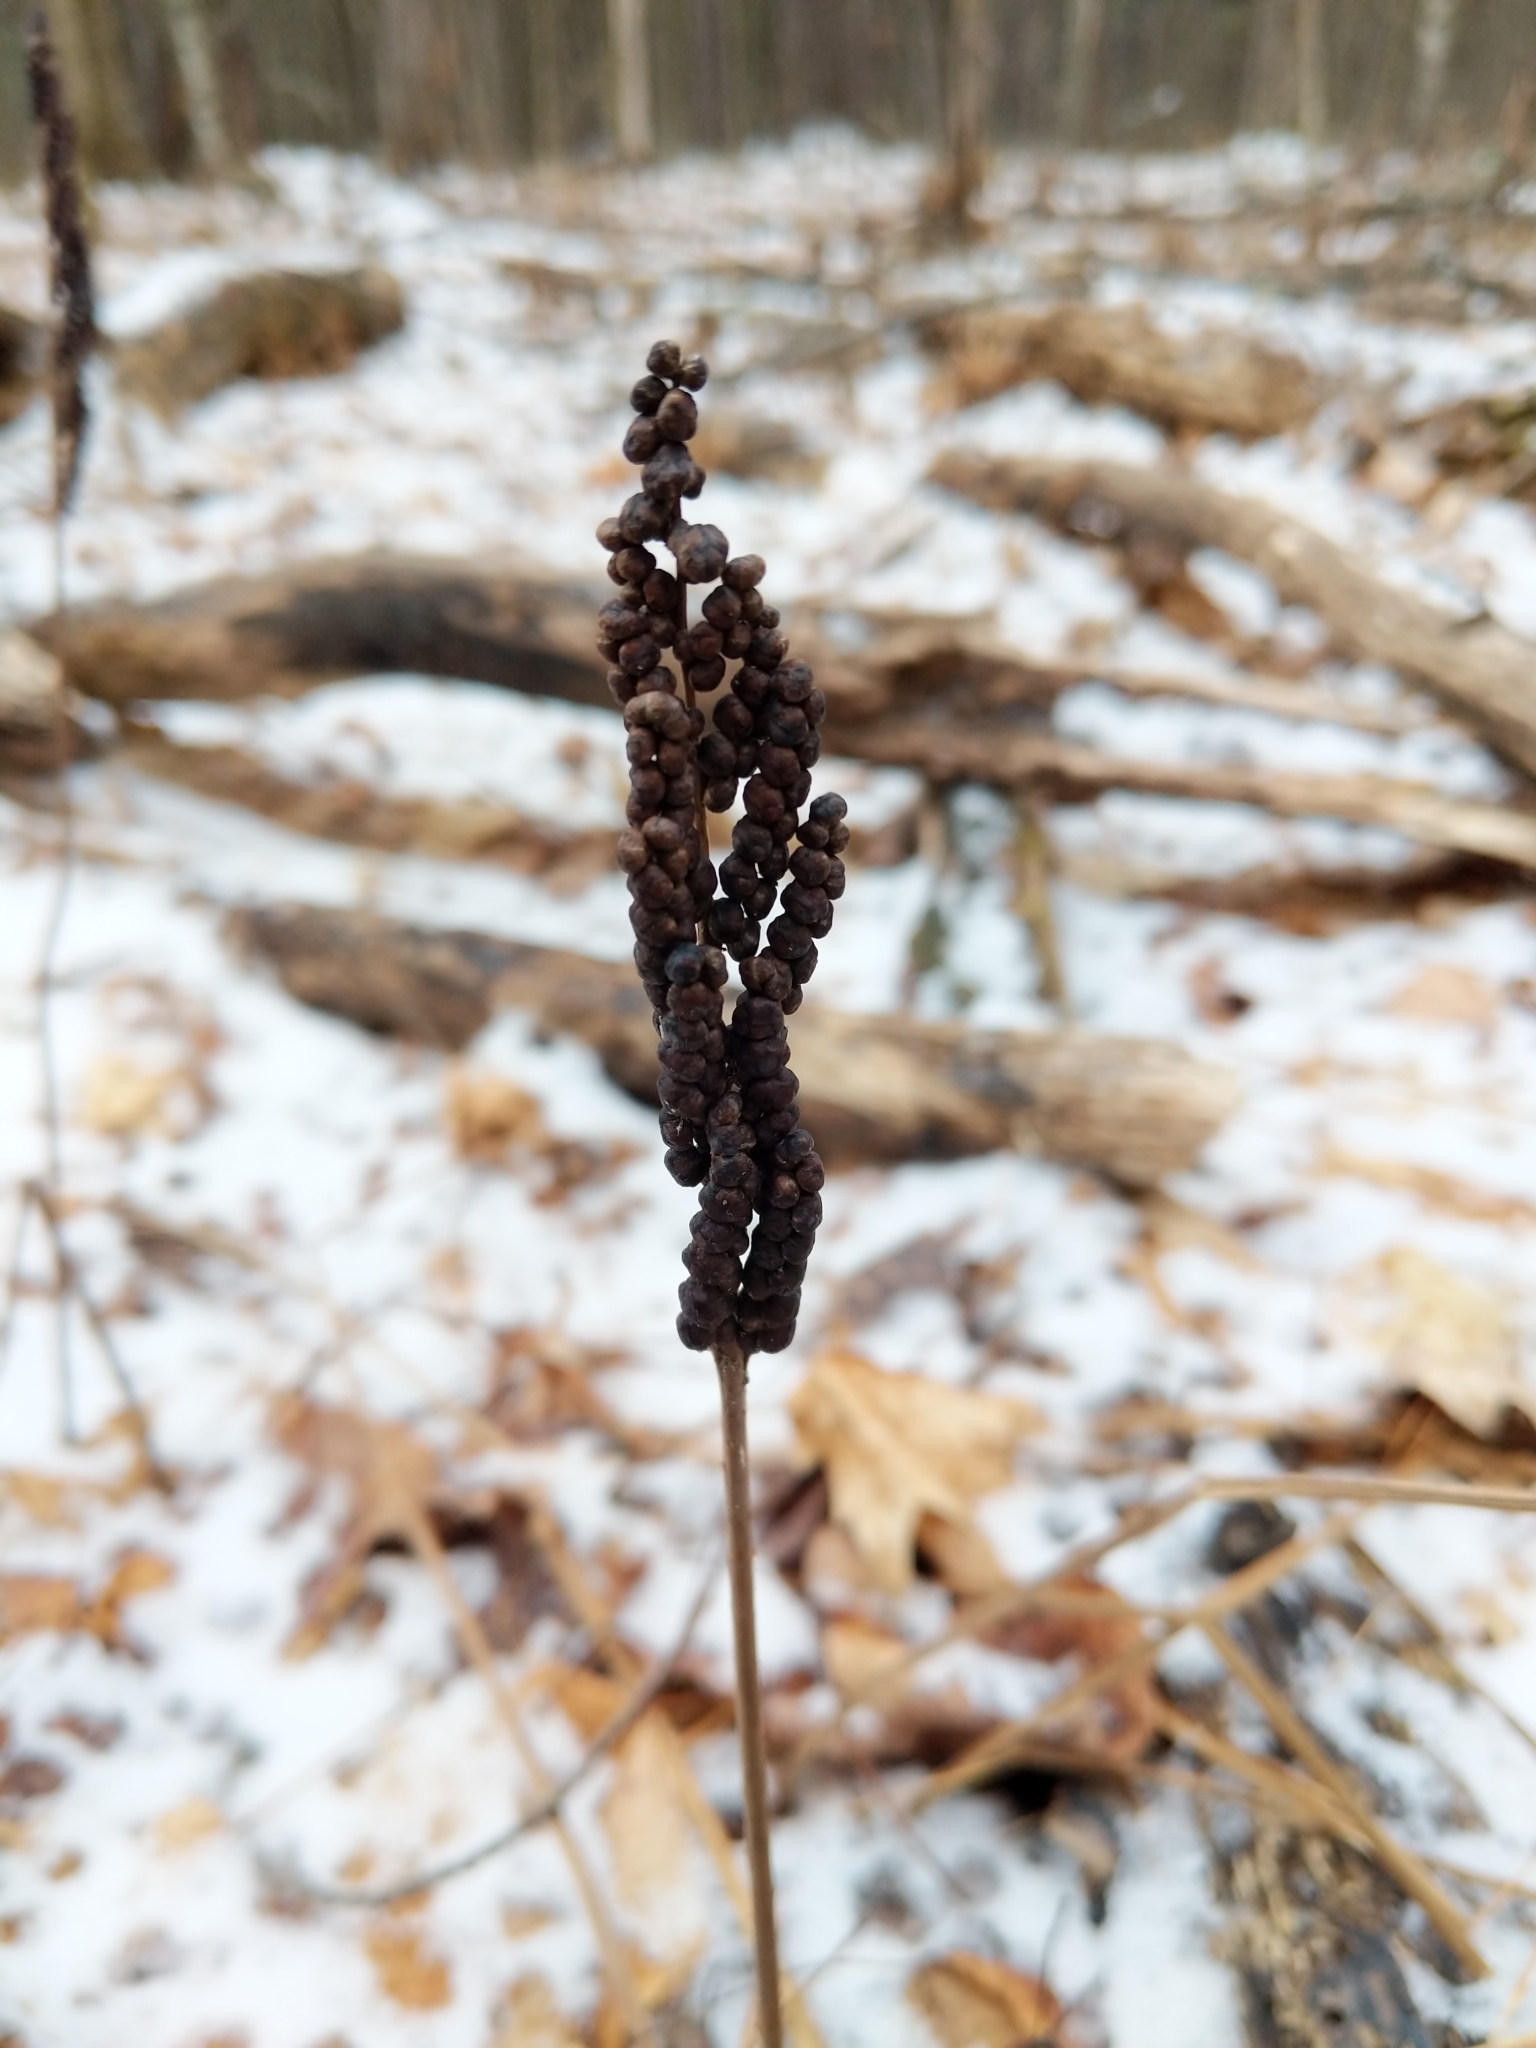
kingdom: Plantae
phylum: Tracheophyta
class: Polypodiopsida
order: Polypodiales
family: Onocleaceae
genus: Onoclea
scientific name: Onoclea sensibilis
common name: Sensitive fern
